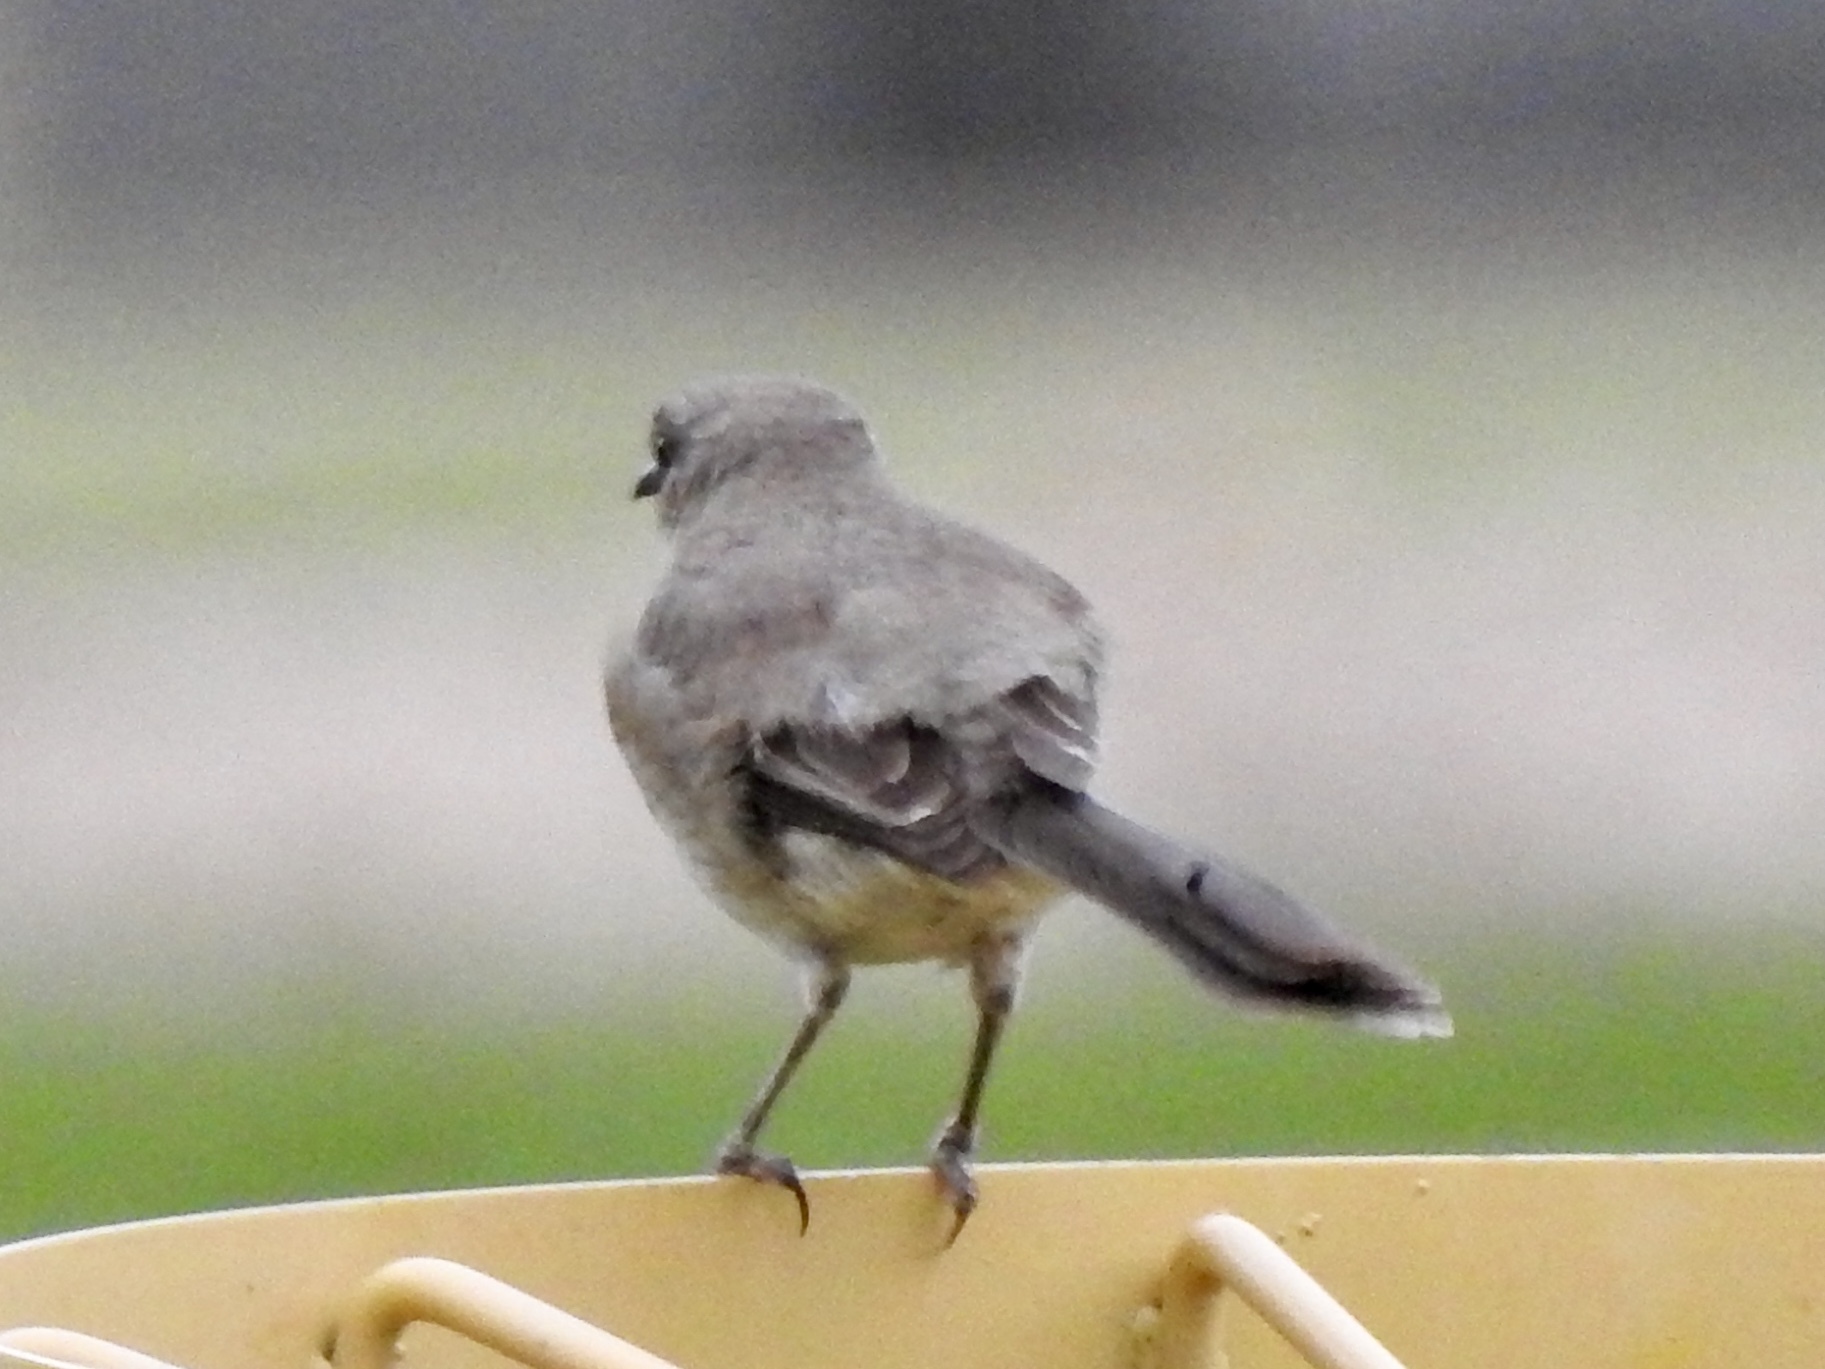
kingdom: Animalia
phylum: Chordata
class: Aves
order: Passeriformes
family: Mimidae
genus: Mimus
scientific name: Mimus polyglottos
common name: Northern mockingbird
